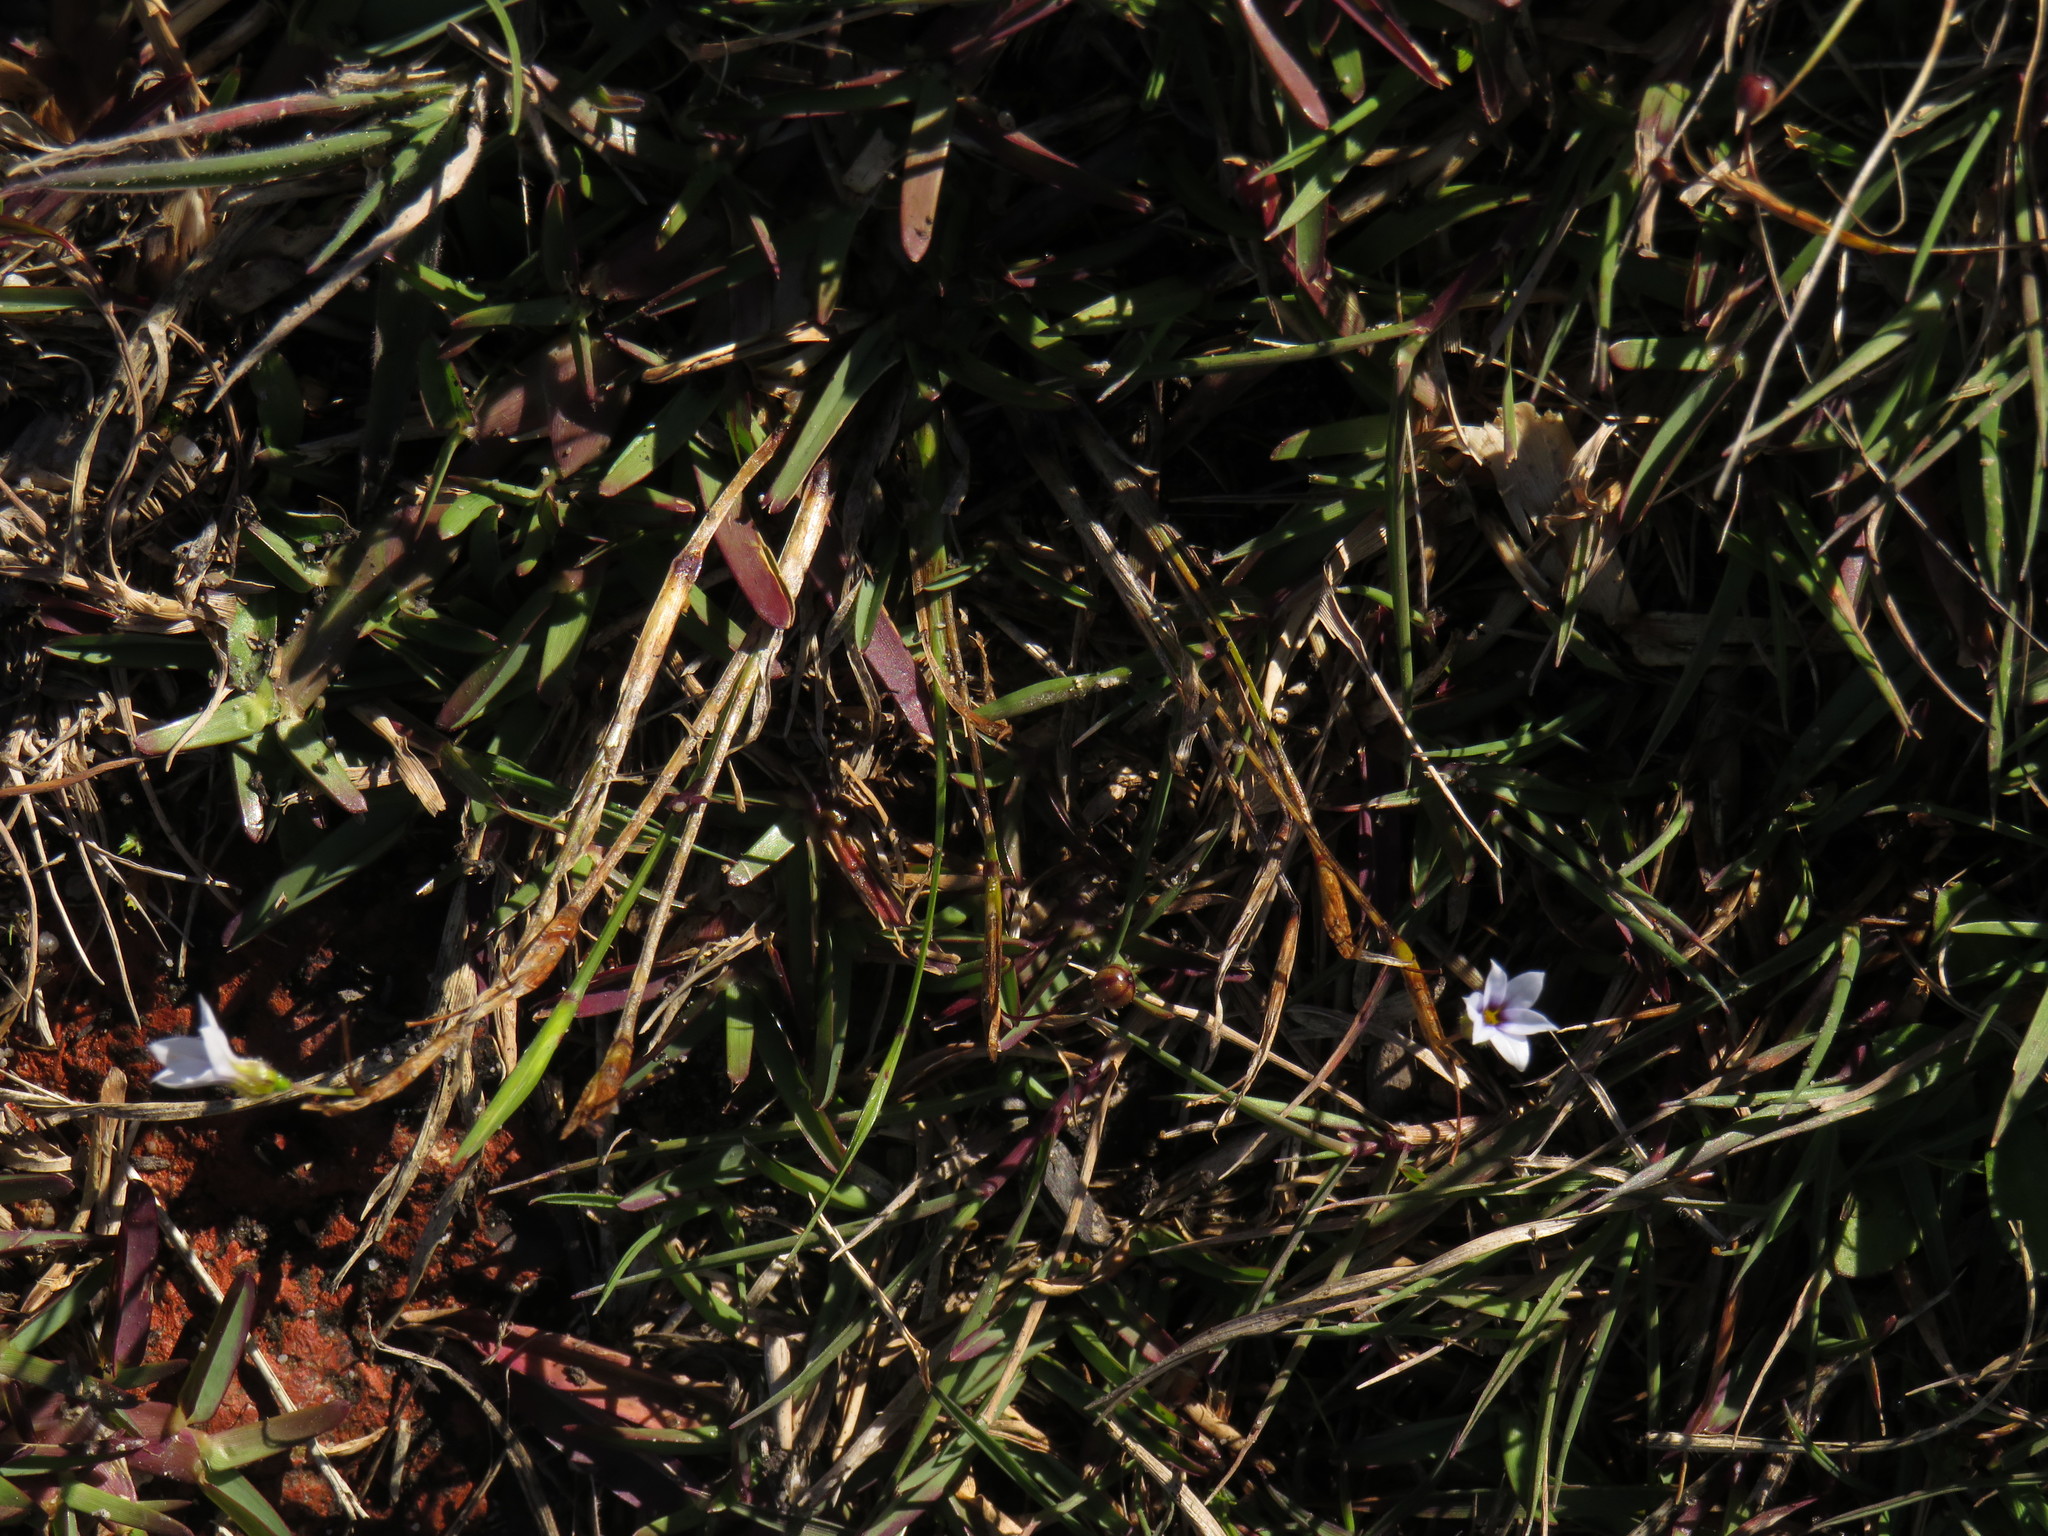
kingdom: Plantae
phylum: Tracheophyta
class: Liliopsida
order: Asparagales
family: Iridaceae
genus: Sisyrinchium
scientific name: Sisyrinchium micranthum
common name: Bermuda pigroot
